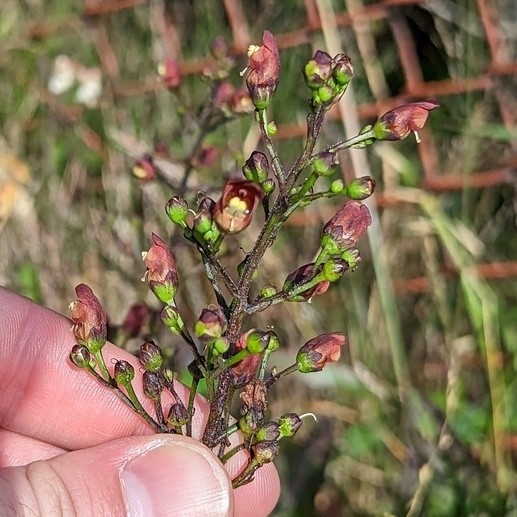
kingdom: Plantae
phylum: Tracheophyta
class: Magnoliopsida
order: Lamiales
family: Scrophulariaceae
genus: Scrophularia
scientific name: Scrophularia californica
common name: California figwort
